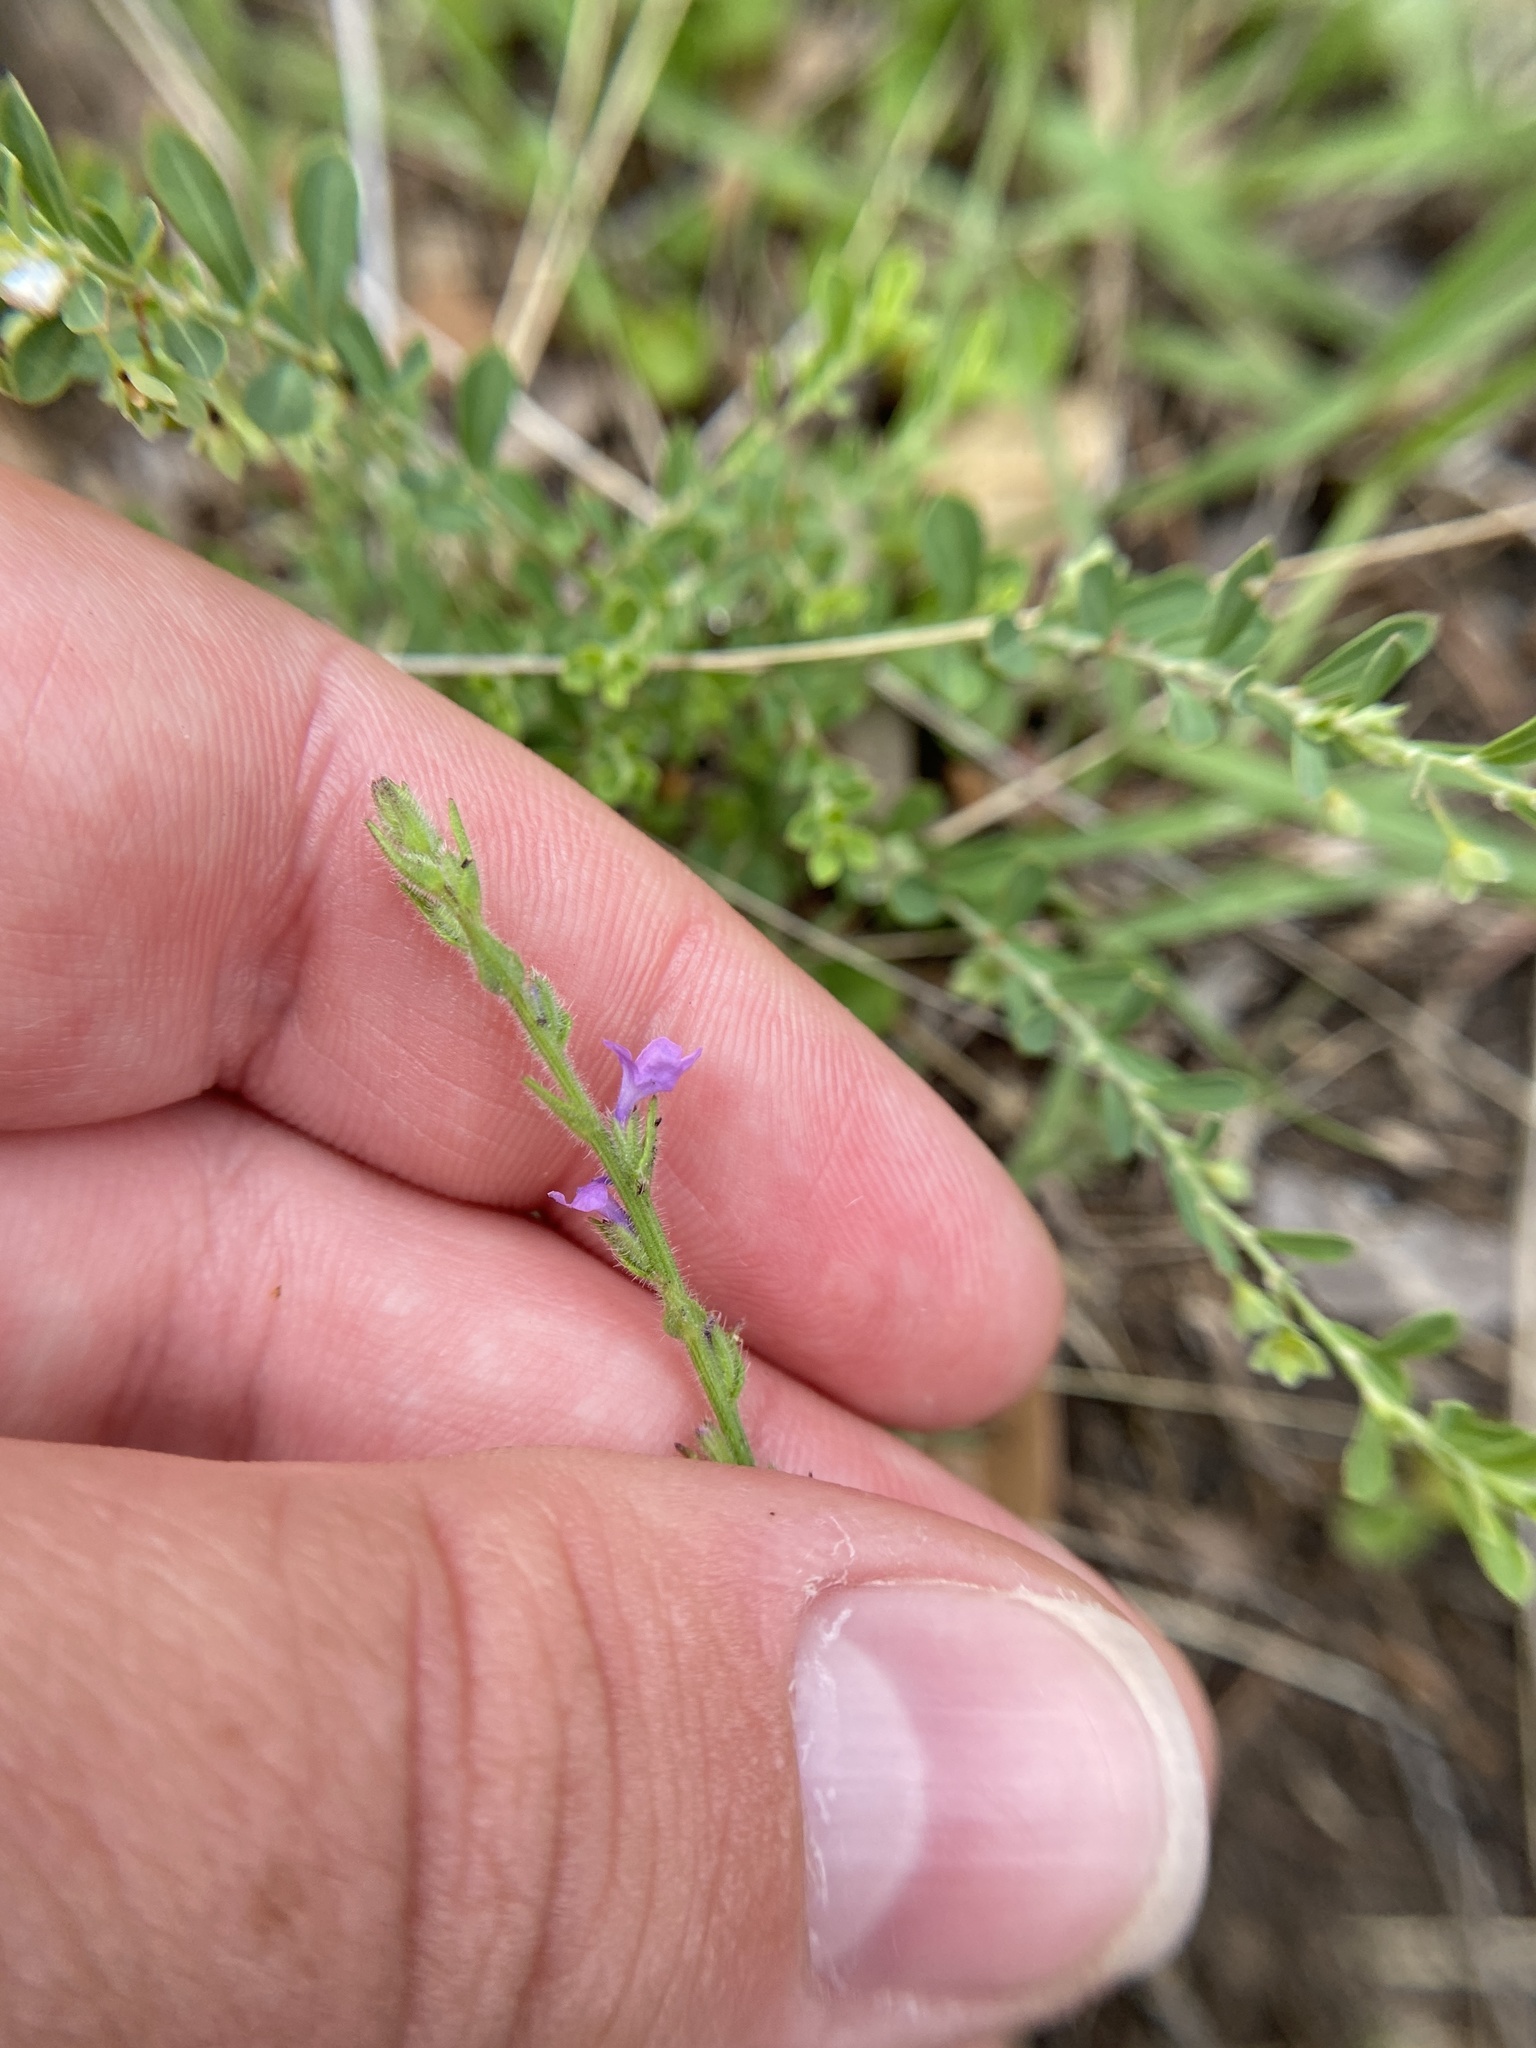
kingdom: Plantae
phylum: Tracheophyta
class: Magnoliopsida
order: Lamiales
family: Verbenaceae
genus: Verbena
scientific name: Verbena canescens
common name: Gray vervain
